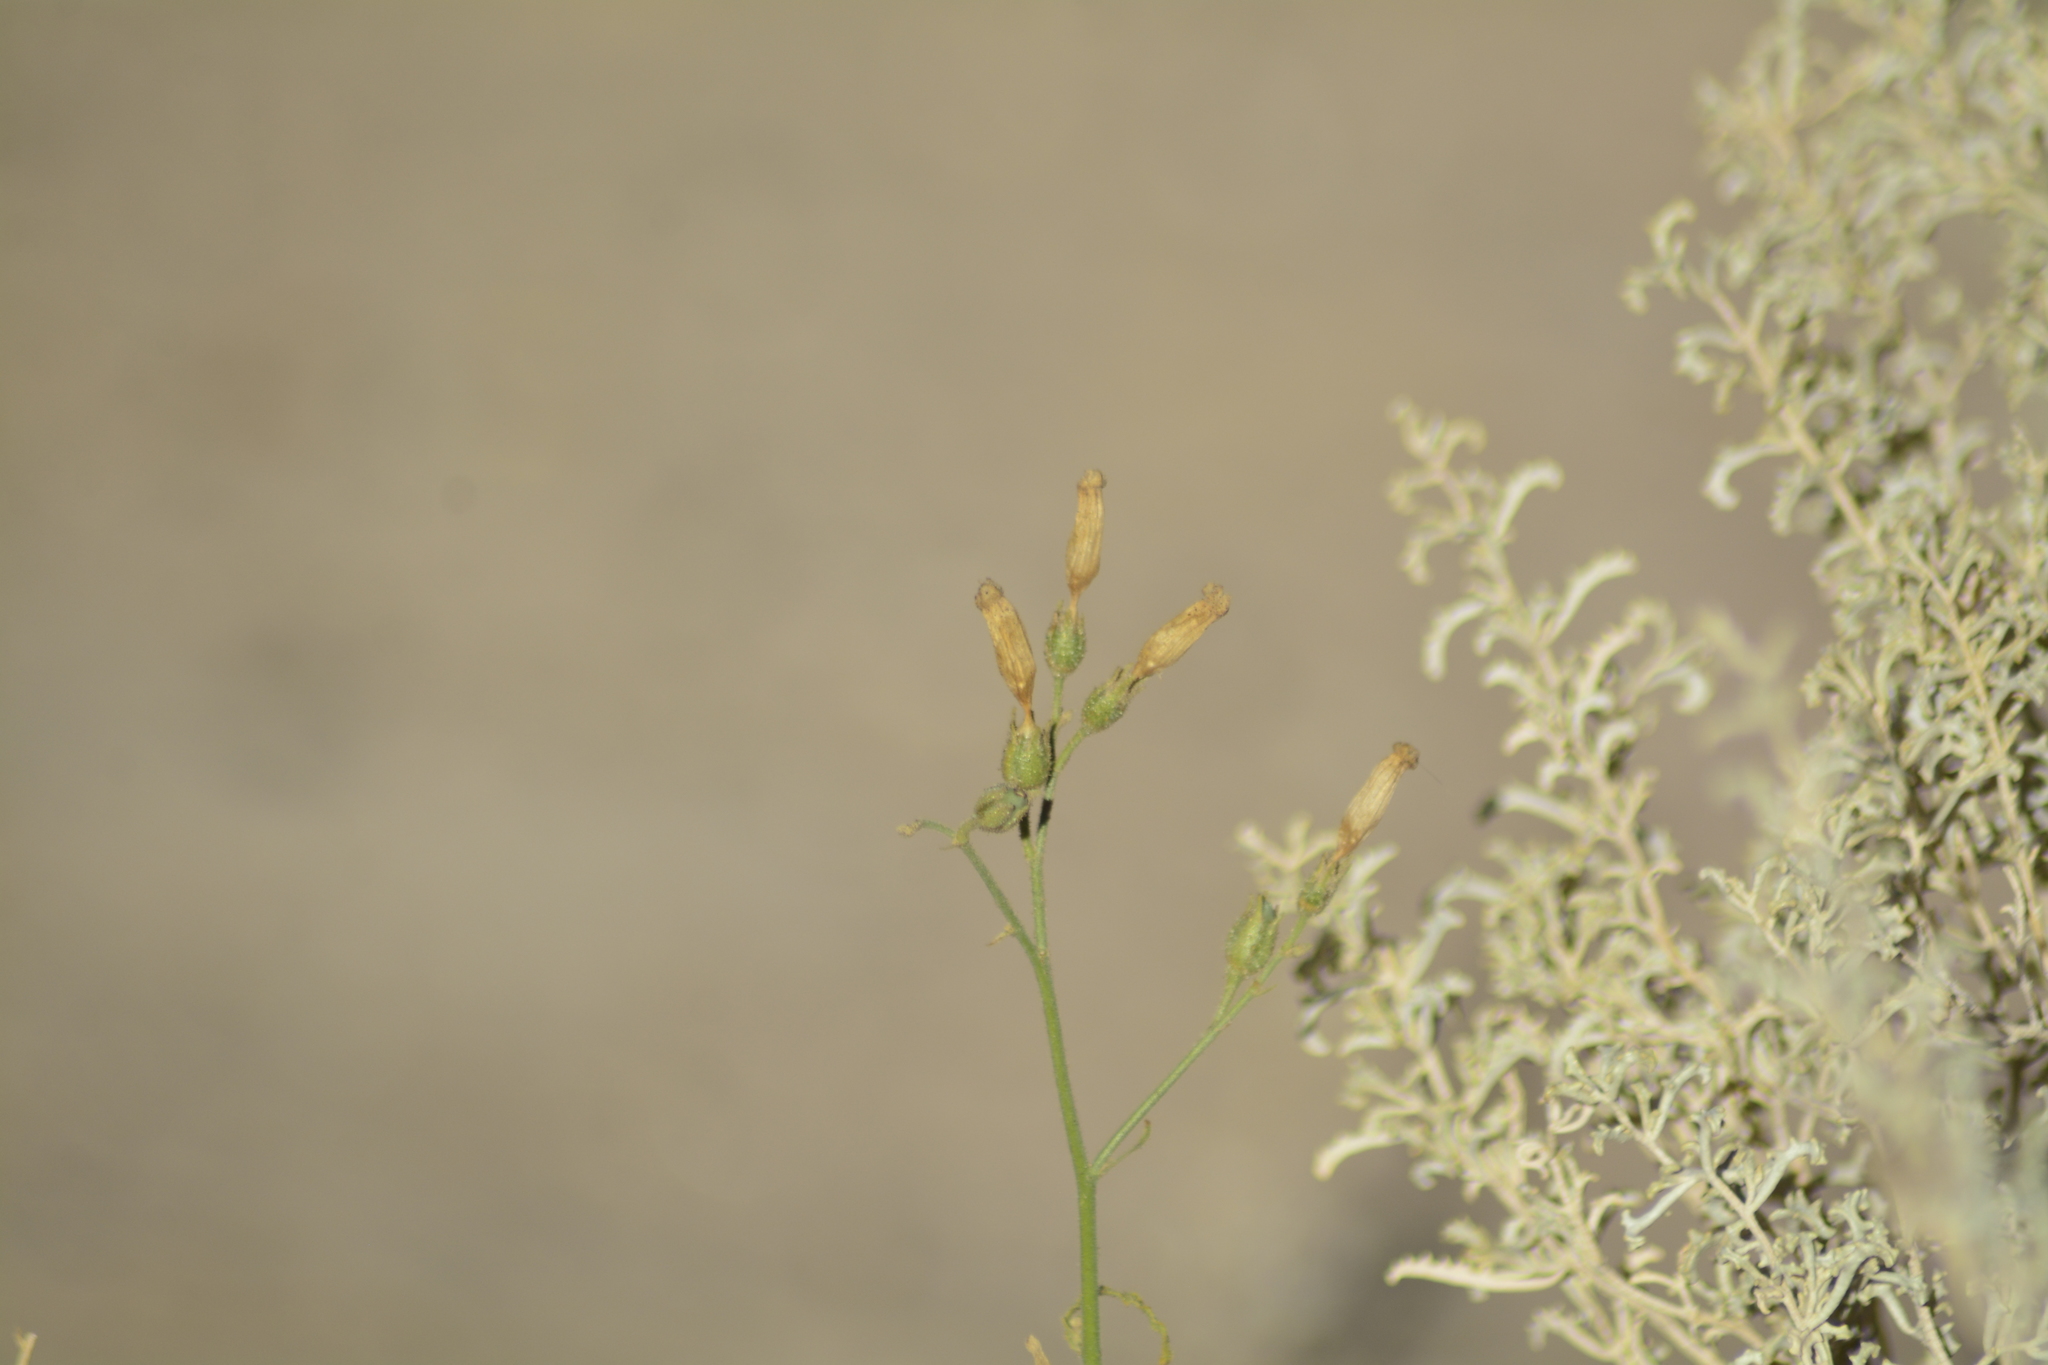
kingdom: Plantae
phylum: Tracheophyta
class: Magnoliopsida
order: Solanales
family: Solanaceae
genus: Nicotiana
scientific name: Nicotiana petunioides
